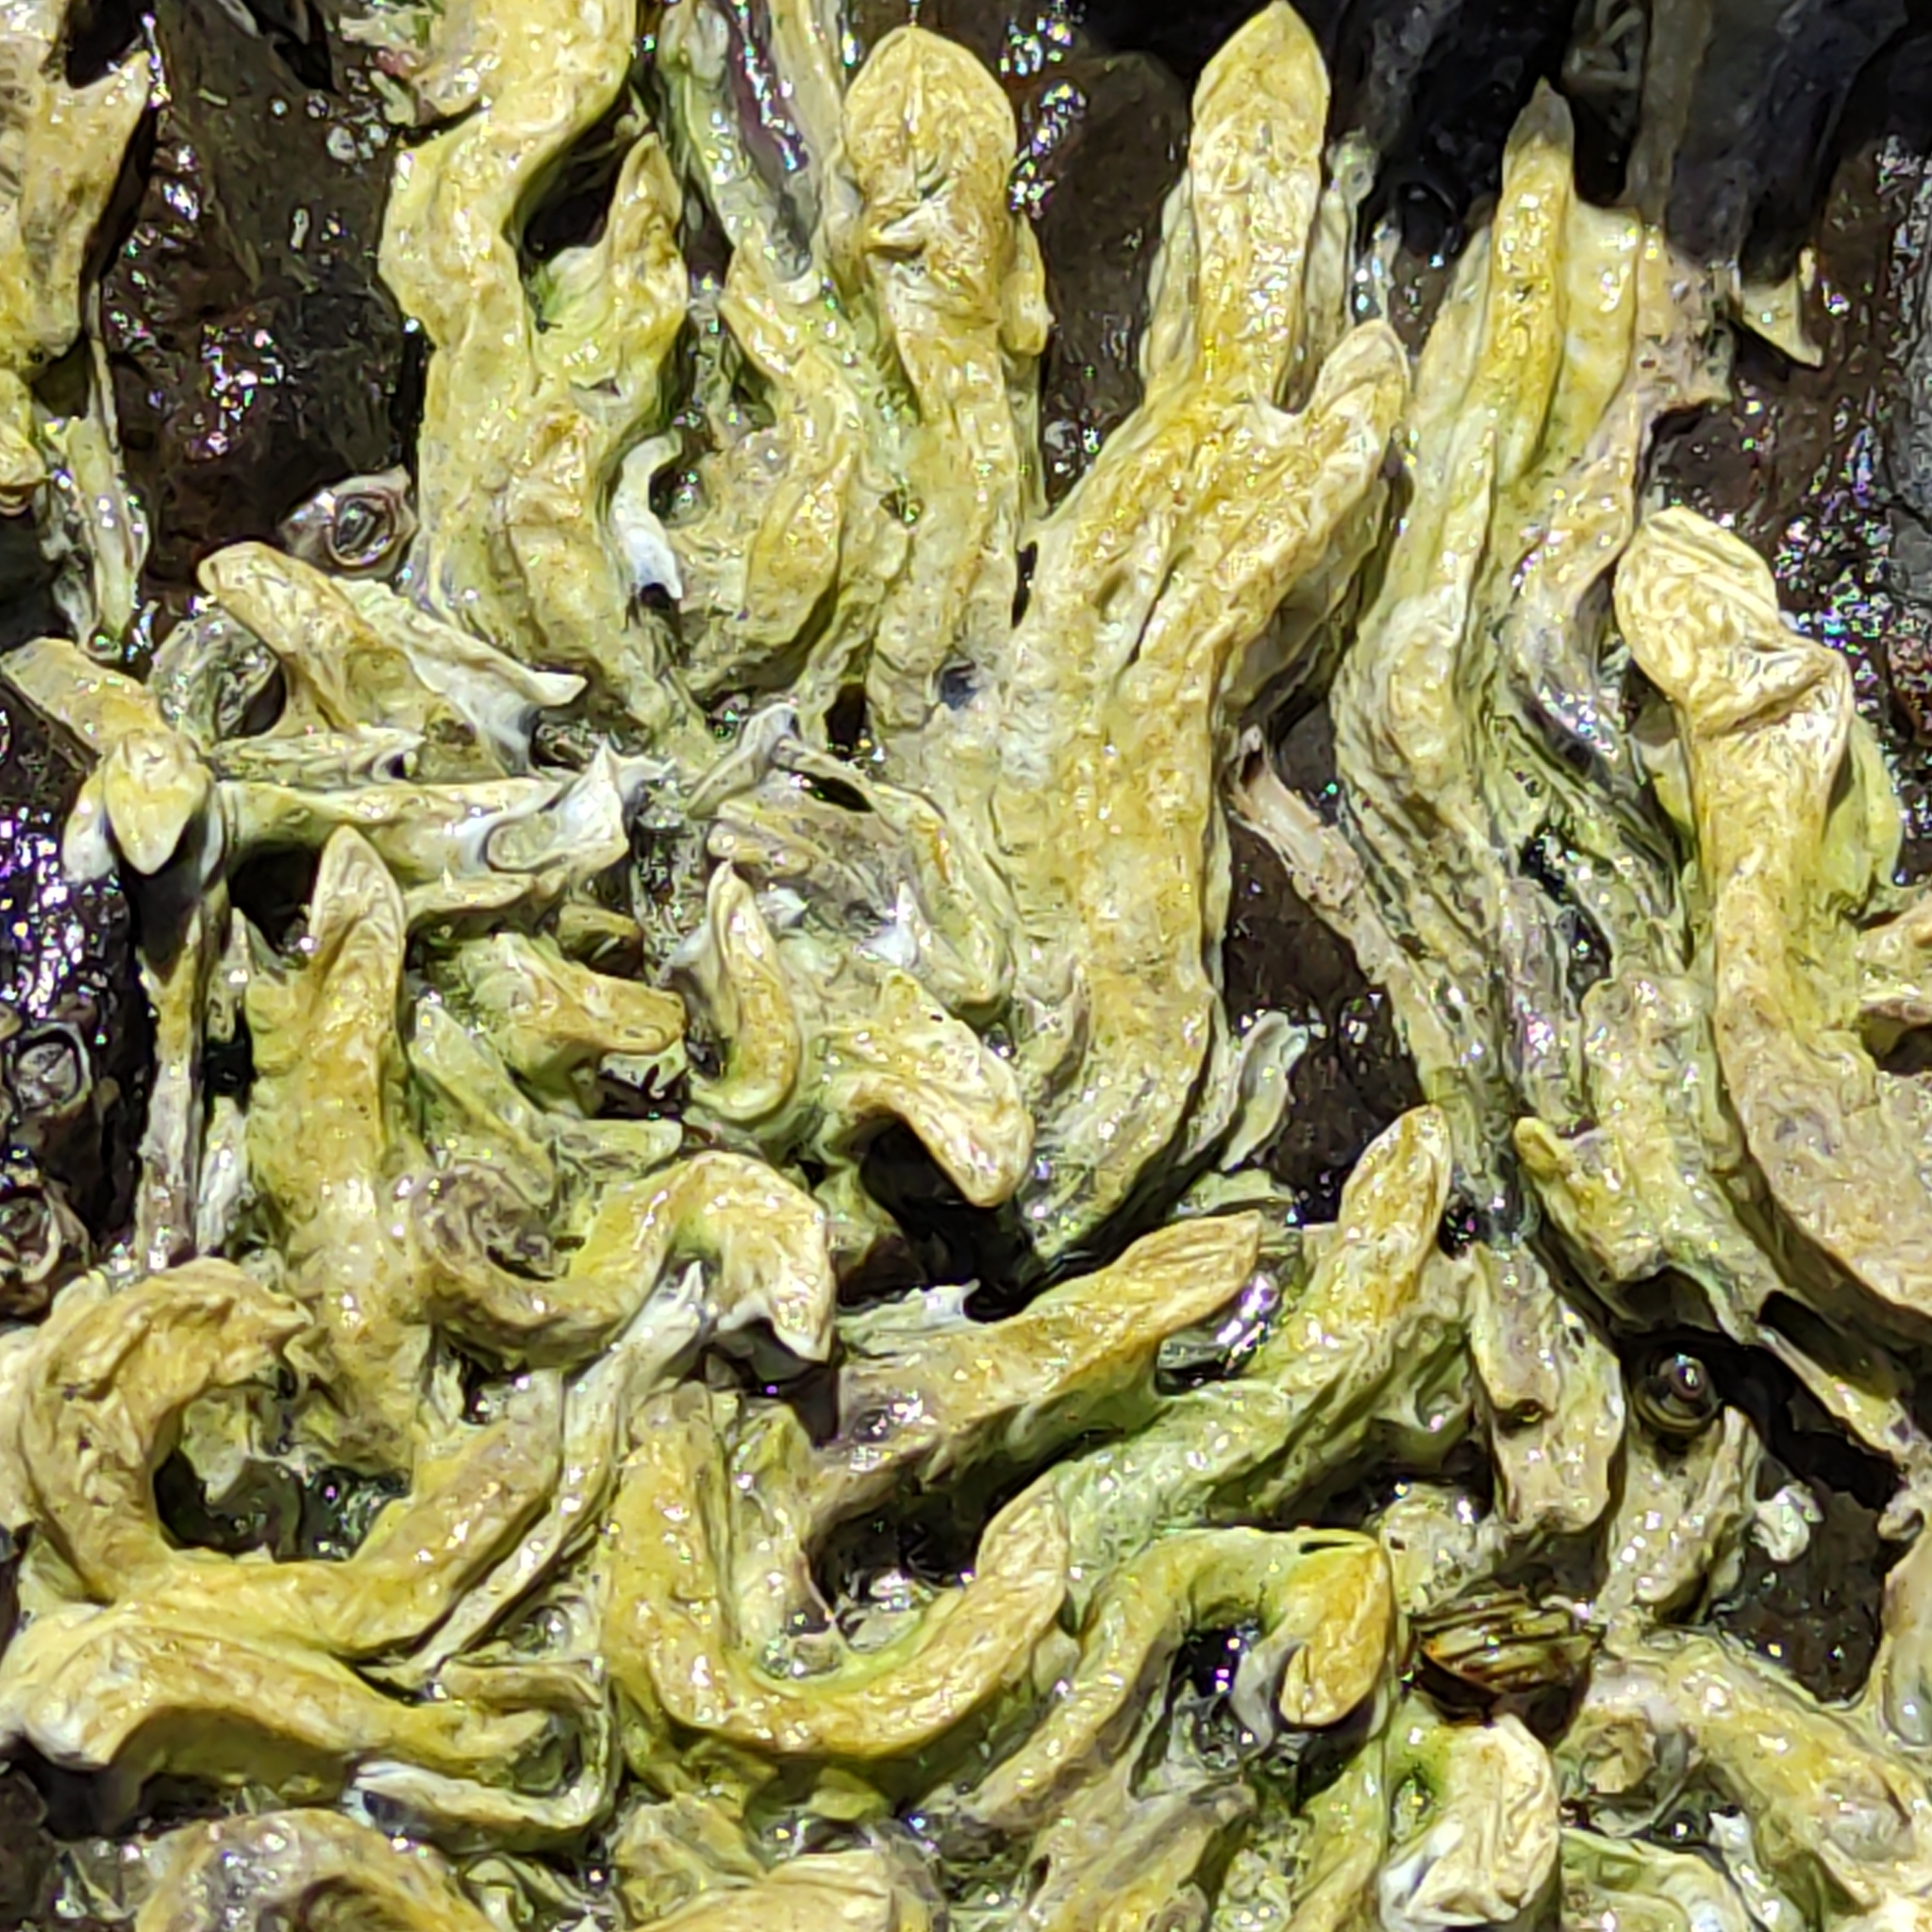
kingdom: Animalia
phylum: Annelida
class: Polychaeta
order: Sabellida
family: Serpulidae
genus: Spirobranchus
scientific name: Spirobranchus cariniferus
